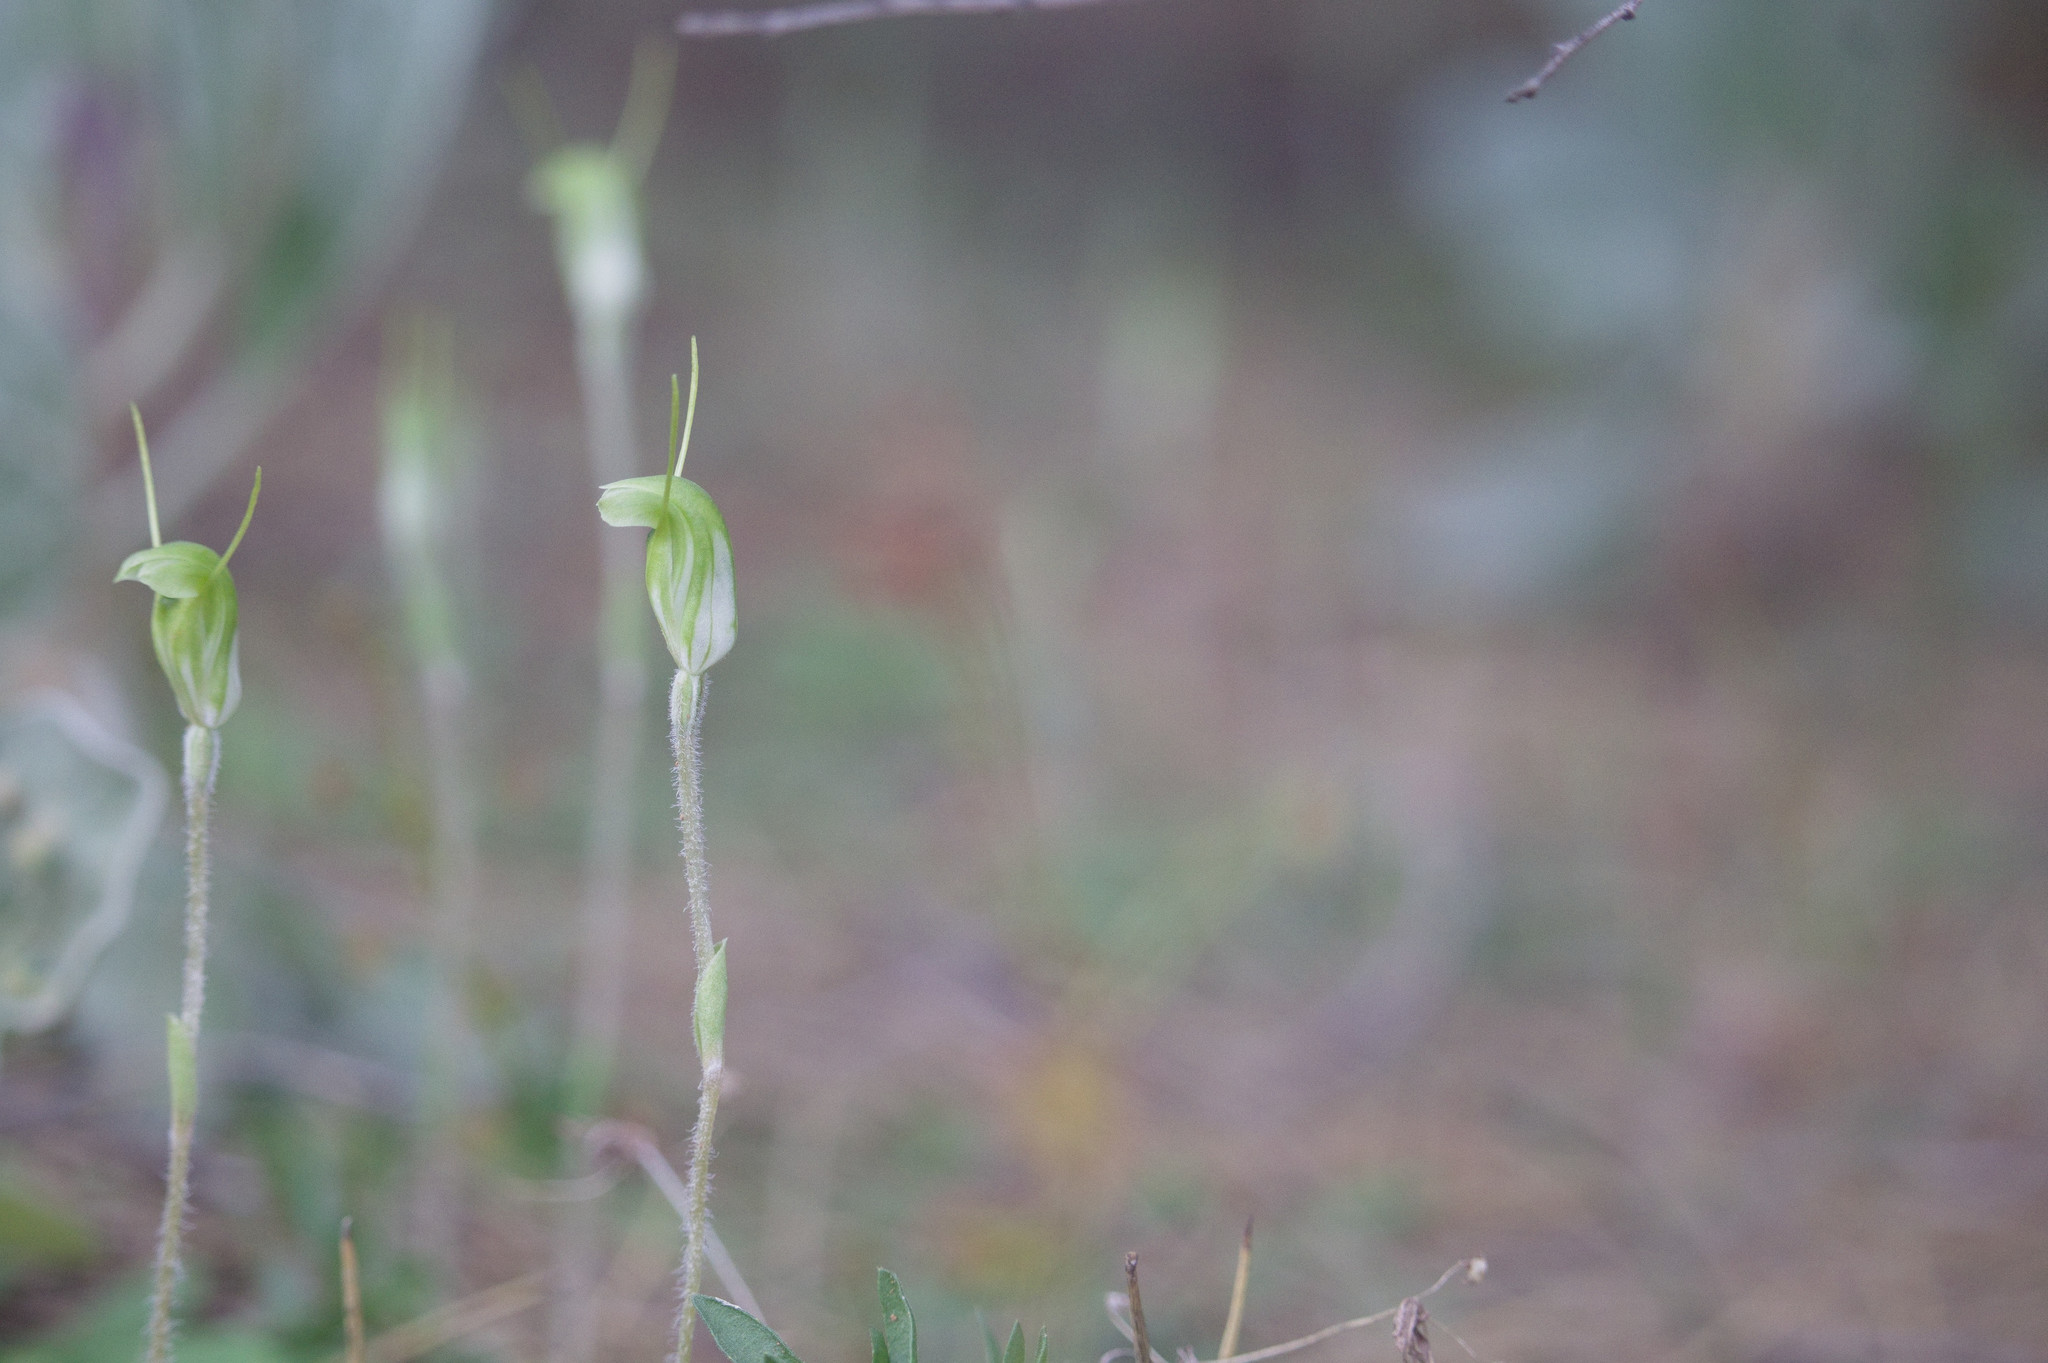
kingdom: Plantae
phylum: Tracheophyta
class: Liliopsida
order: Asparagales
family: Orchidaceae
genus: Pterostylis
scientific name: Pterostylis setulosa
